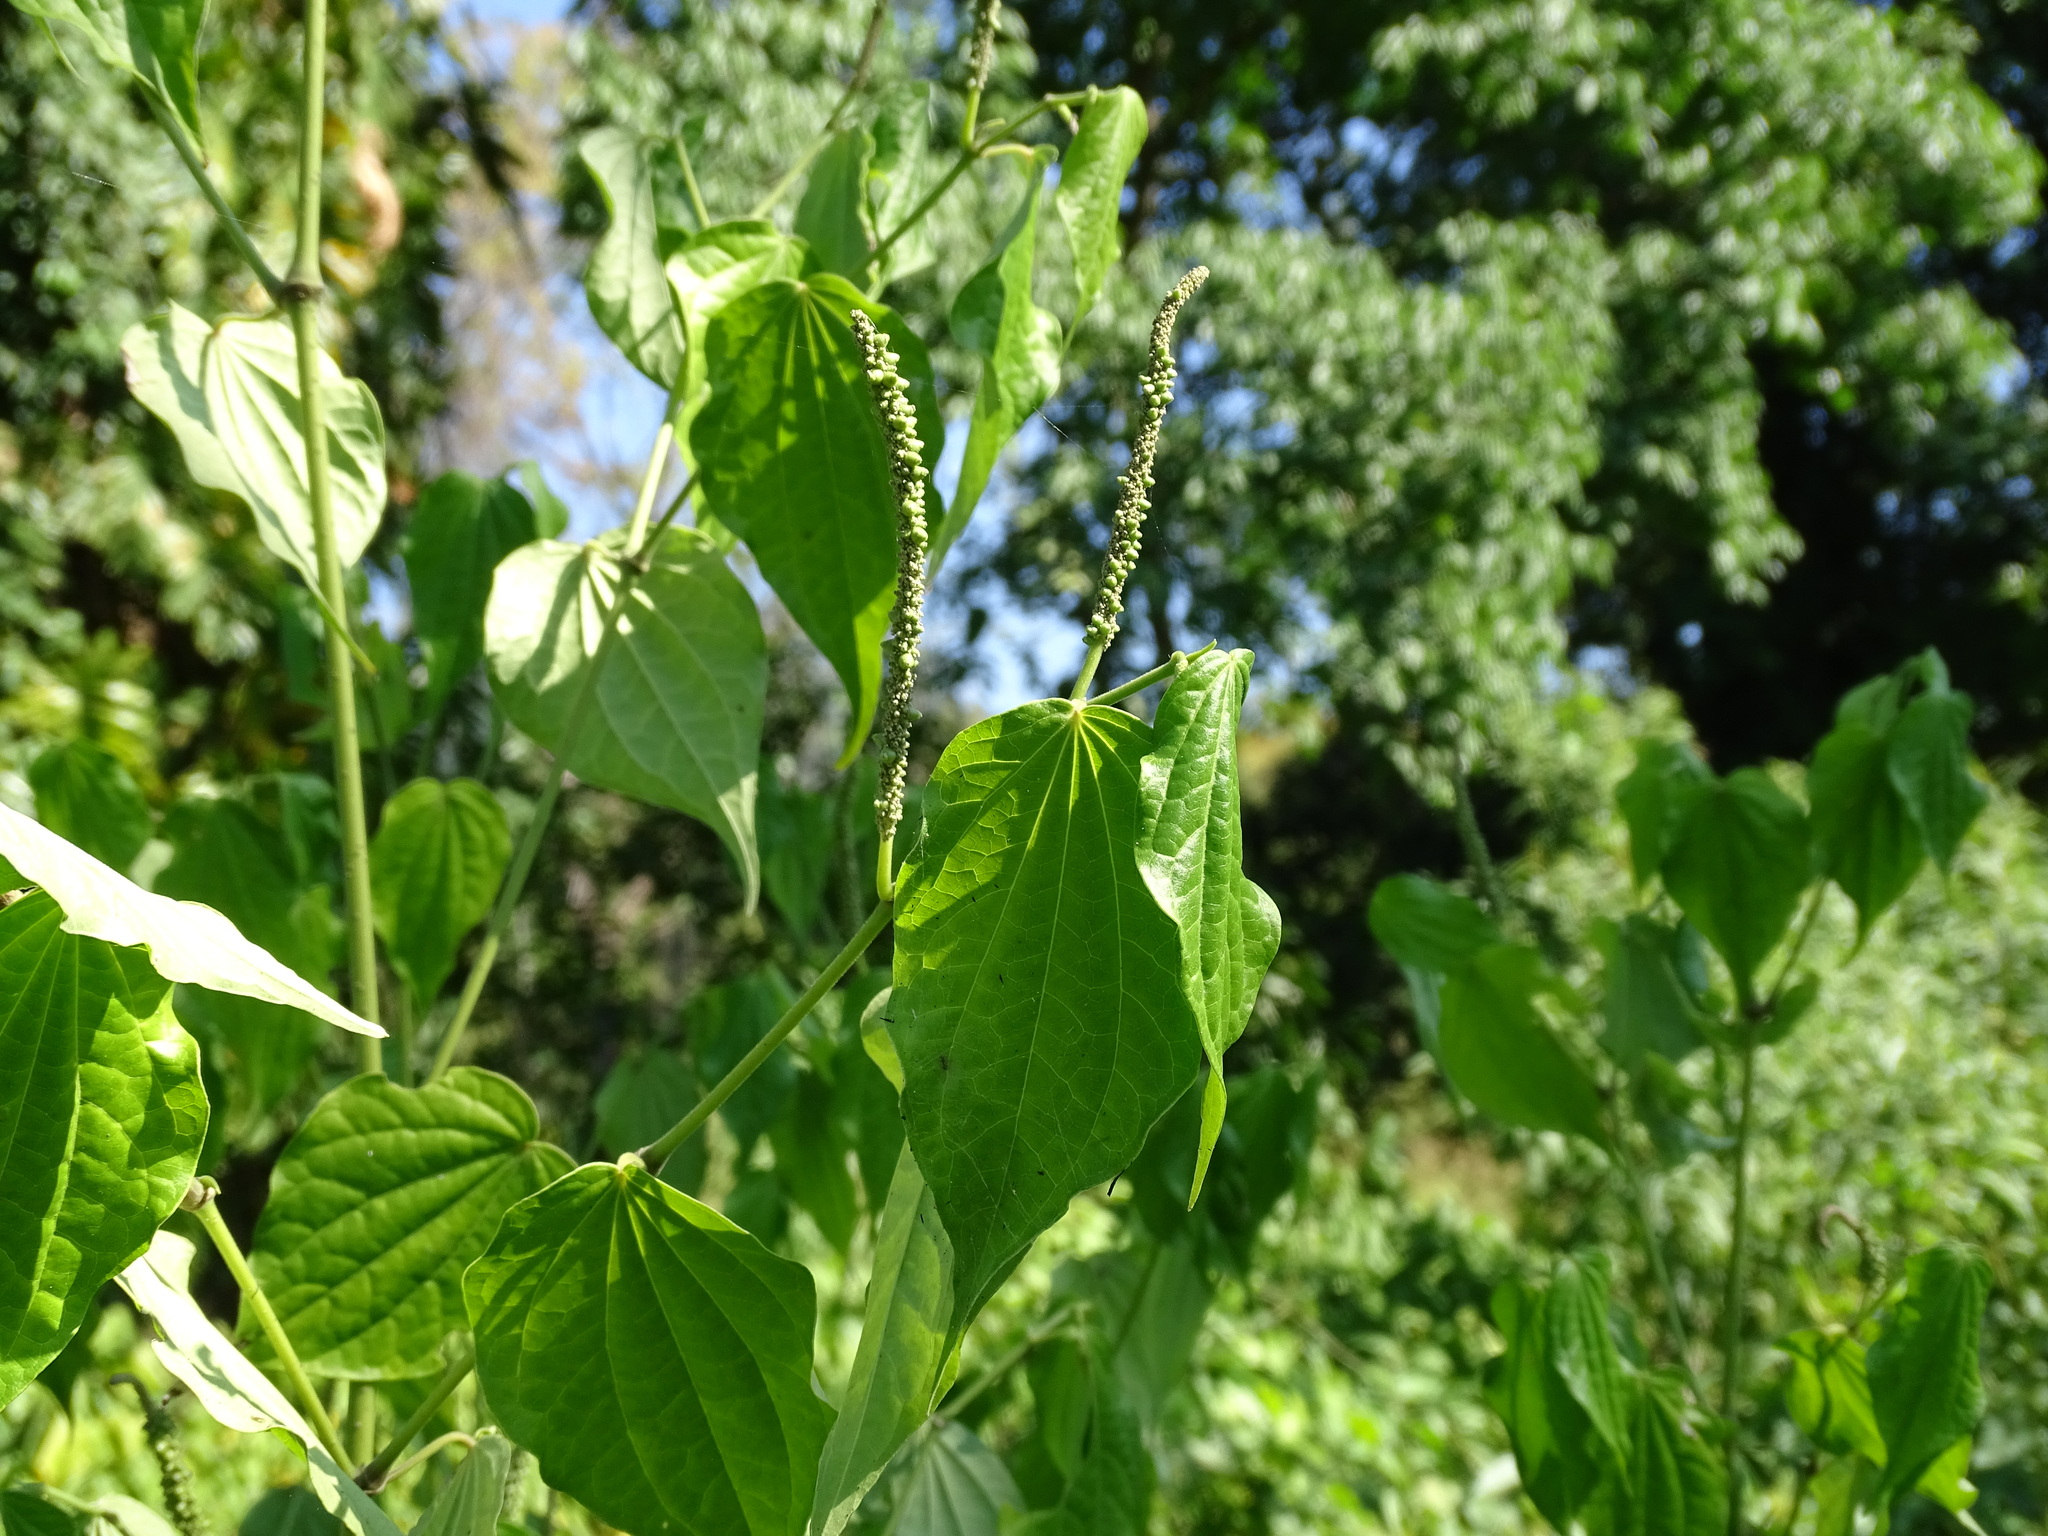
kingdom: Plantae
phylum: Tracheophyta
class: Magnoliopsida
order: Piperales
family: Piperaceae
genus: Piper
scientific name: Piper amalago
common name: Pepper-elder
